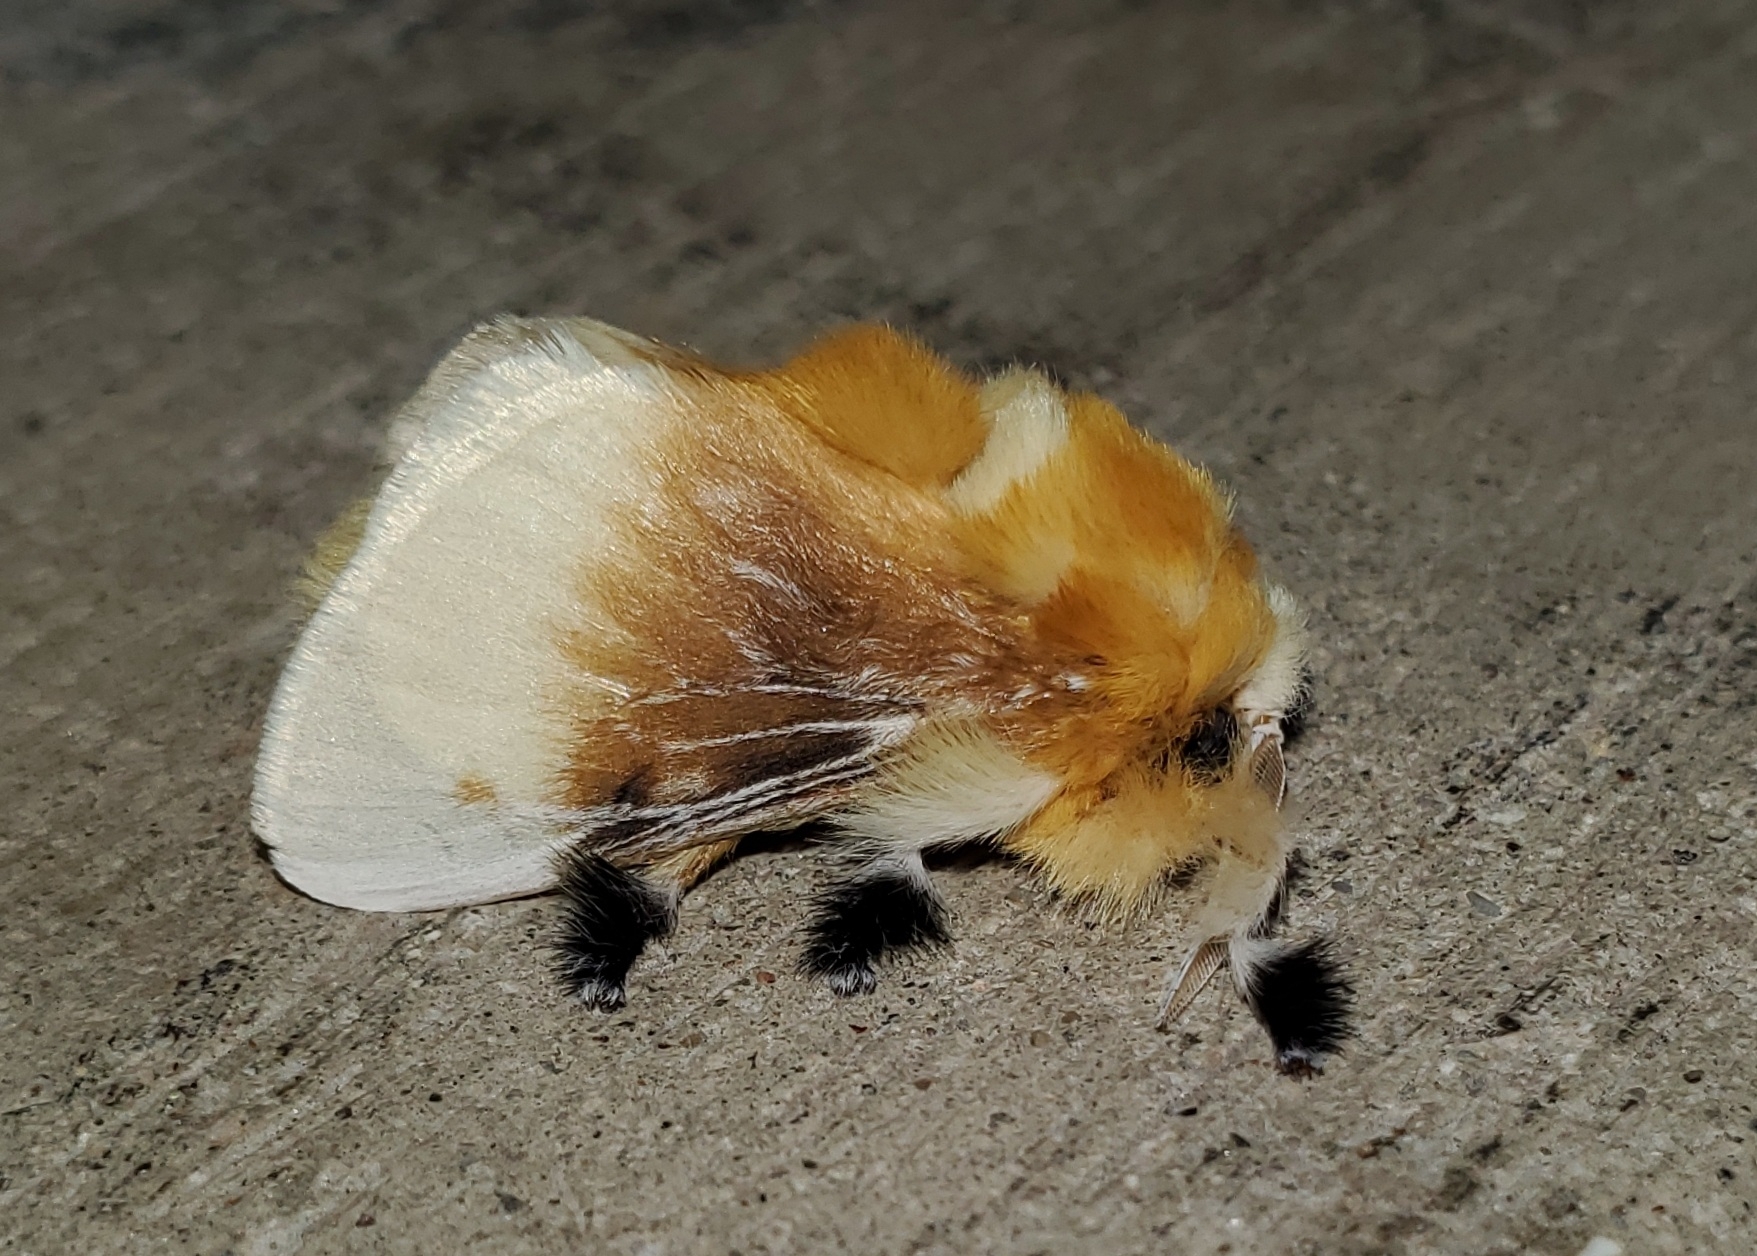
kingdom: Animalia
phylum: Arthropoda
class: Insecta
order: Lepidoptera
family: Megalopygidae
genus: Megalopyge
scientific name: Megalopyge opercularis
